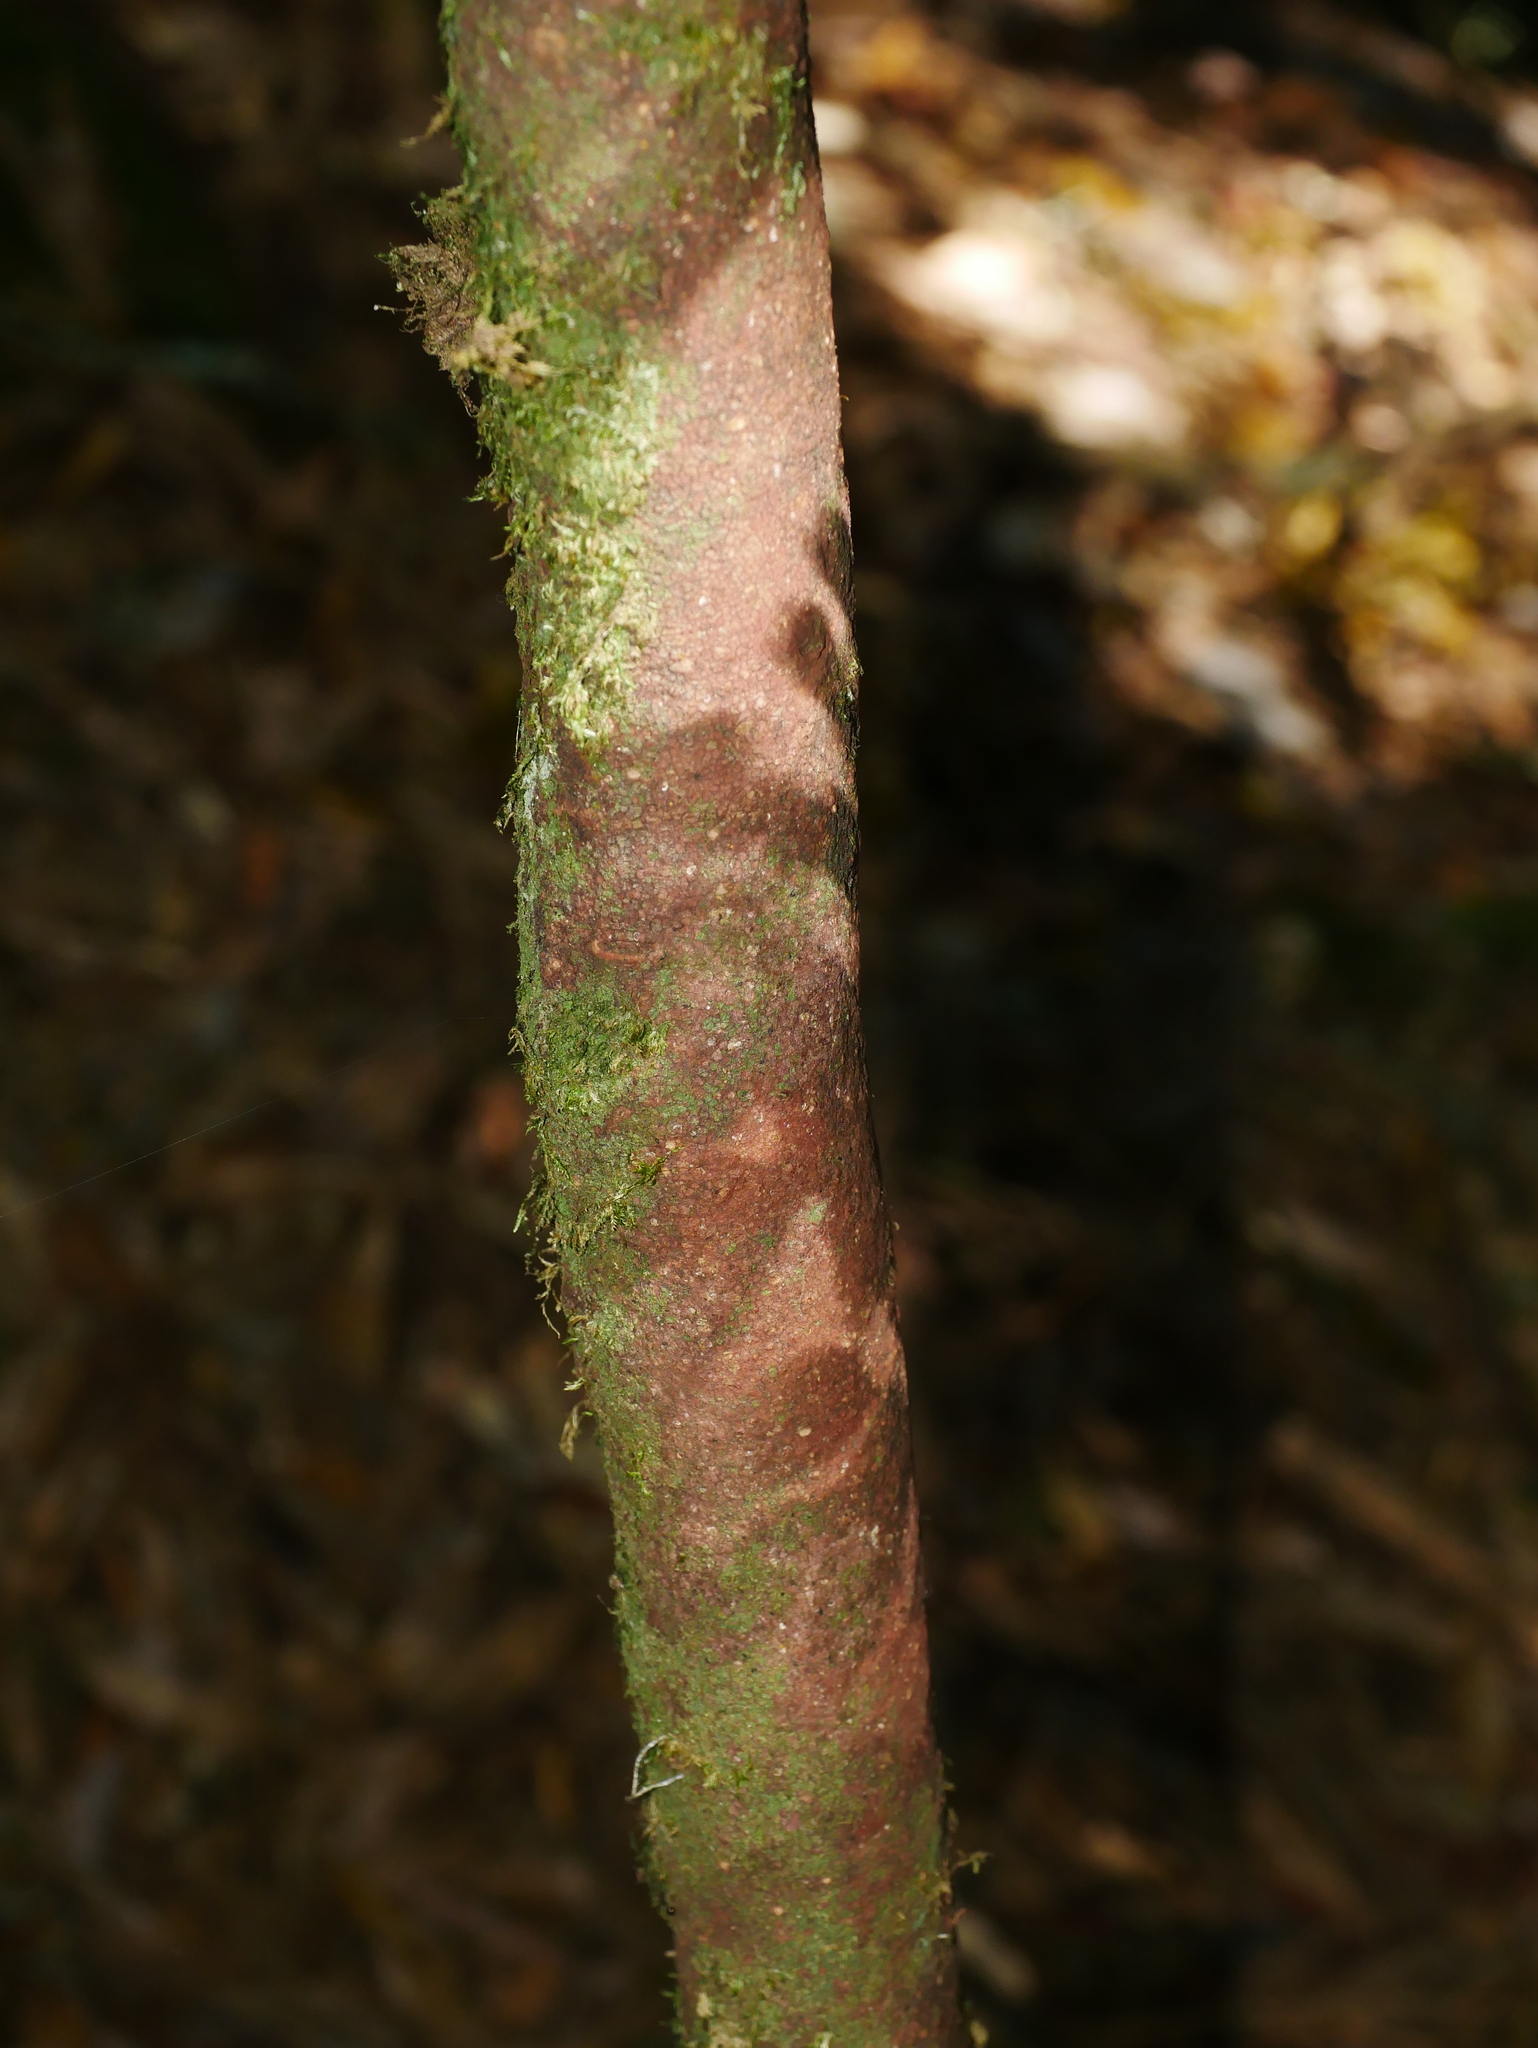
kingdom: Plantae
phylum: Tracheophyta
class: Magnoliopsida
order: Ericales
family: Pentaphylacaceae
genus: Cleyera
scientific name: Cleyera longicarpa
